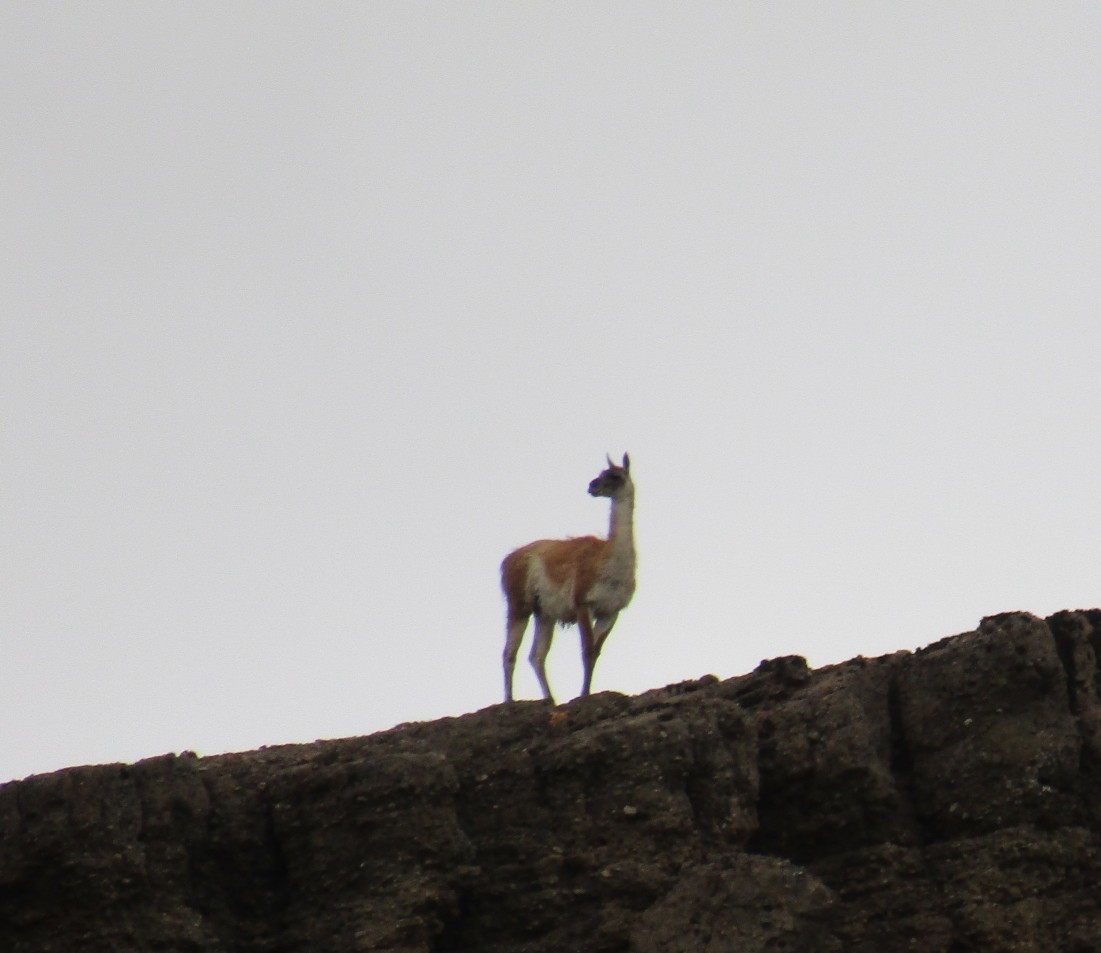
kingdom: Animalia
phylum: Chordata
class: Mammalia
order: Artiodactyla
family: Camelidae
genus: Lama
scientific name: Lama glama
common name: Llama
